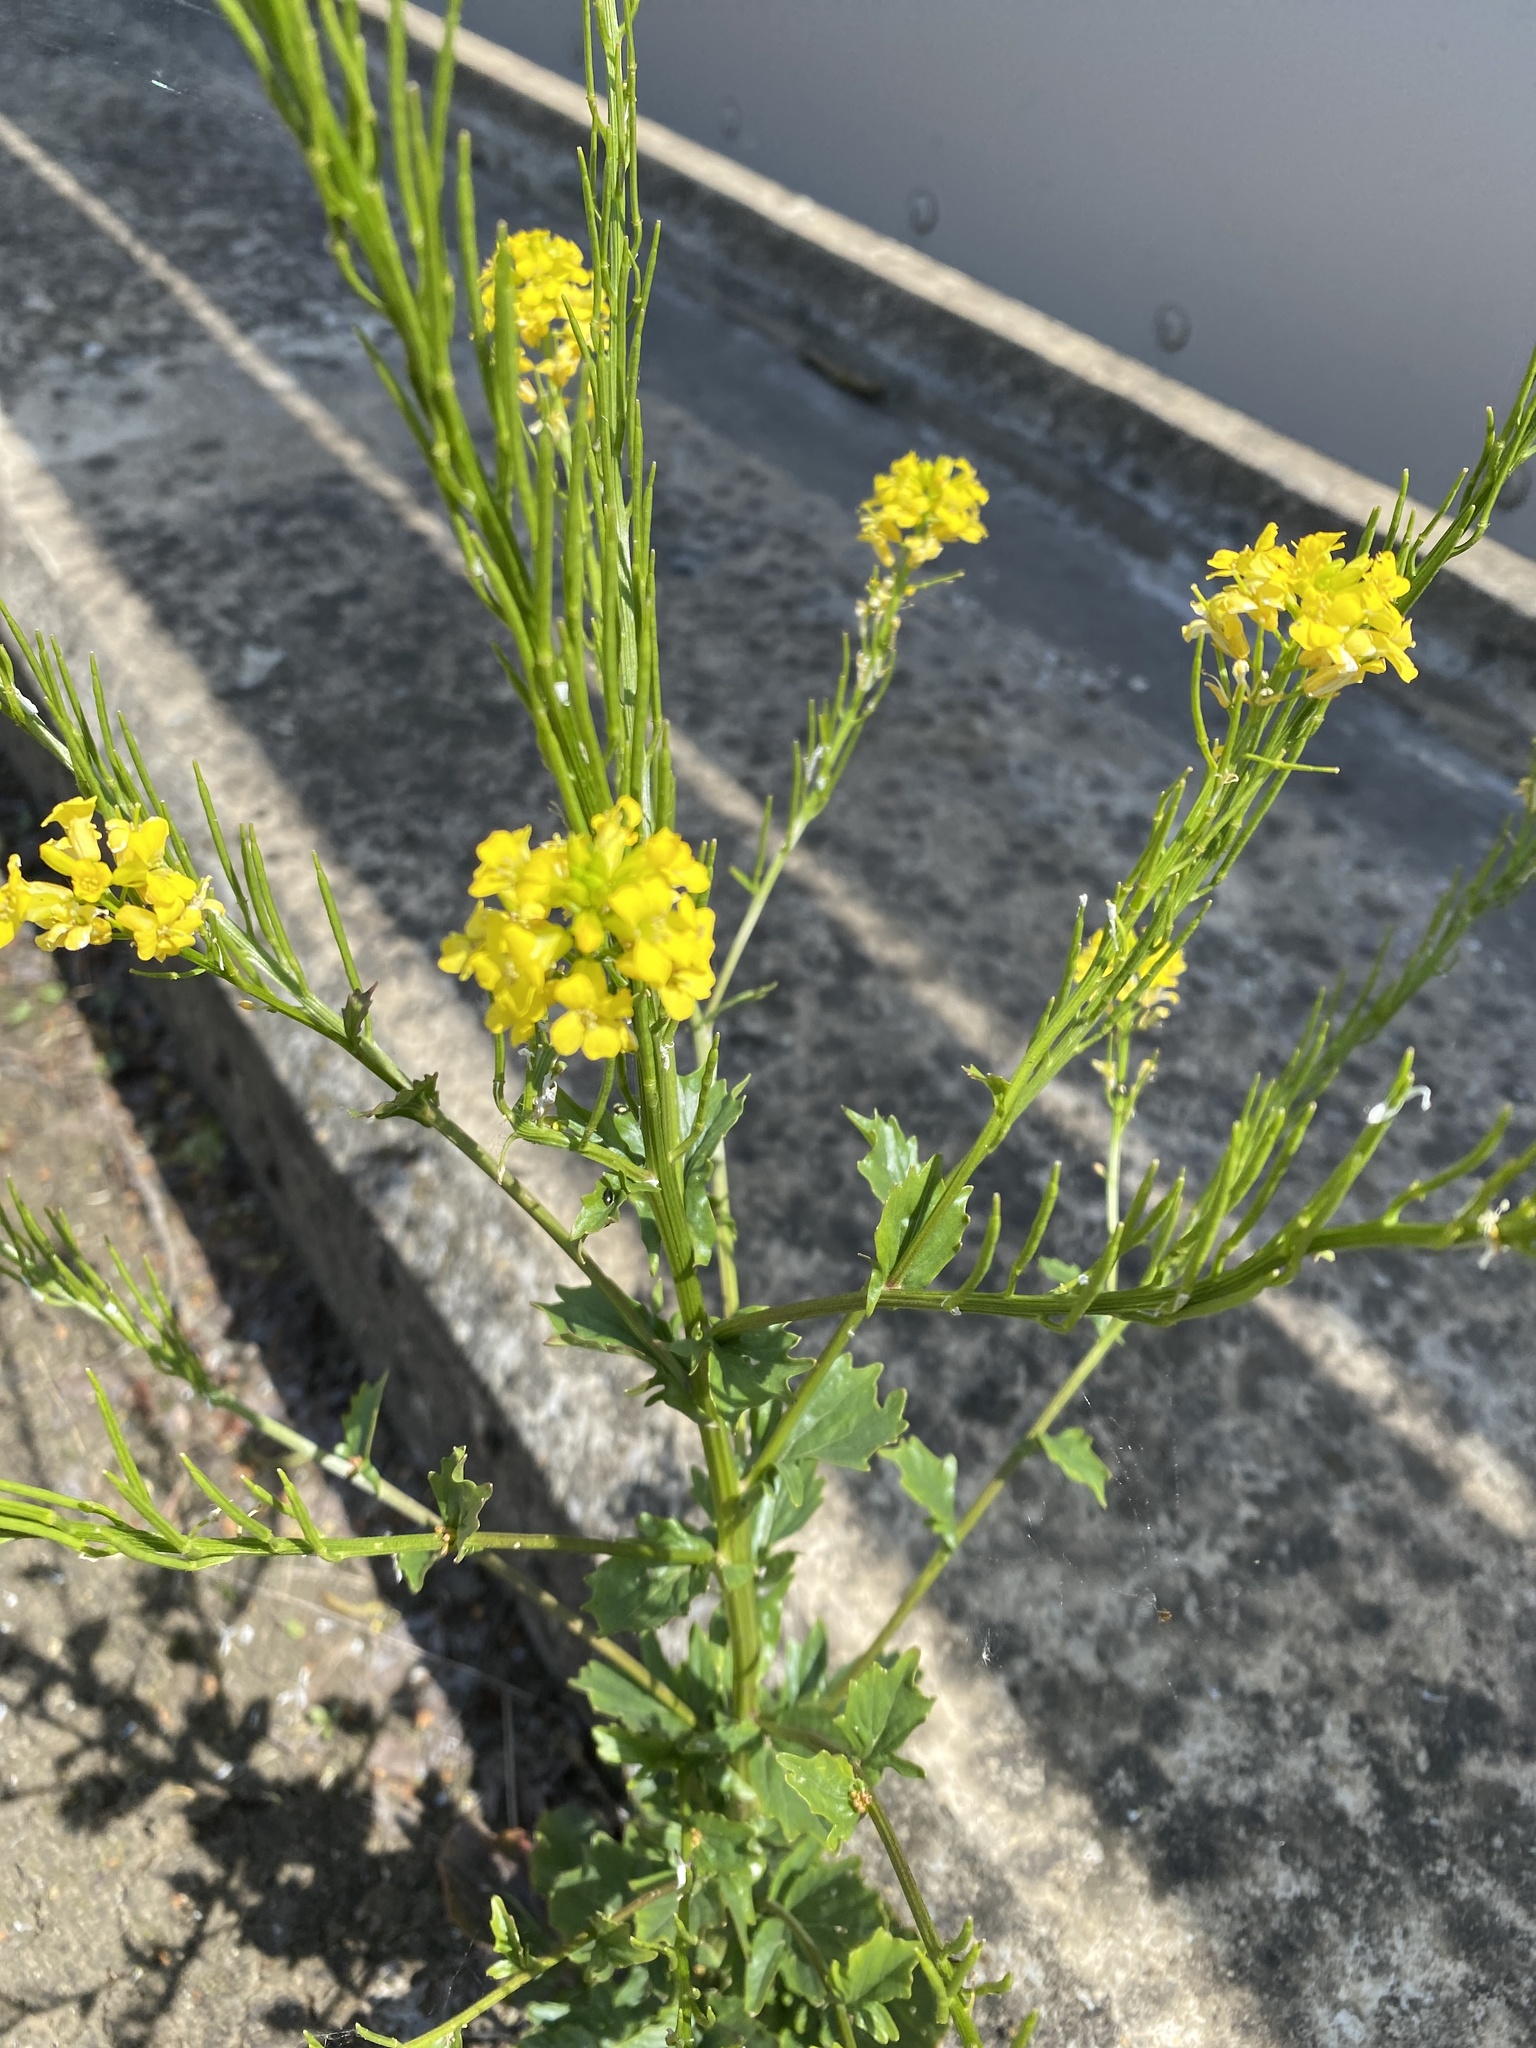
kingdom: Plantae
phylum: Tracheophyta
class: Magnoliopsida
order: Brassicales
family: Brassicaceae
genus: Barbarea
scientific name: Barbarea vulgaris
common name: Cressy-greens
